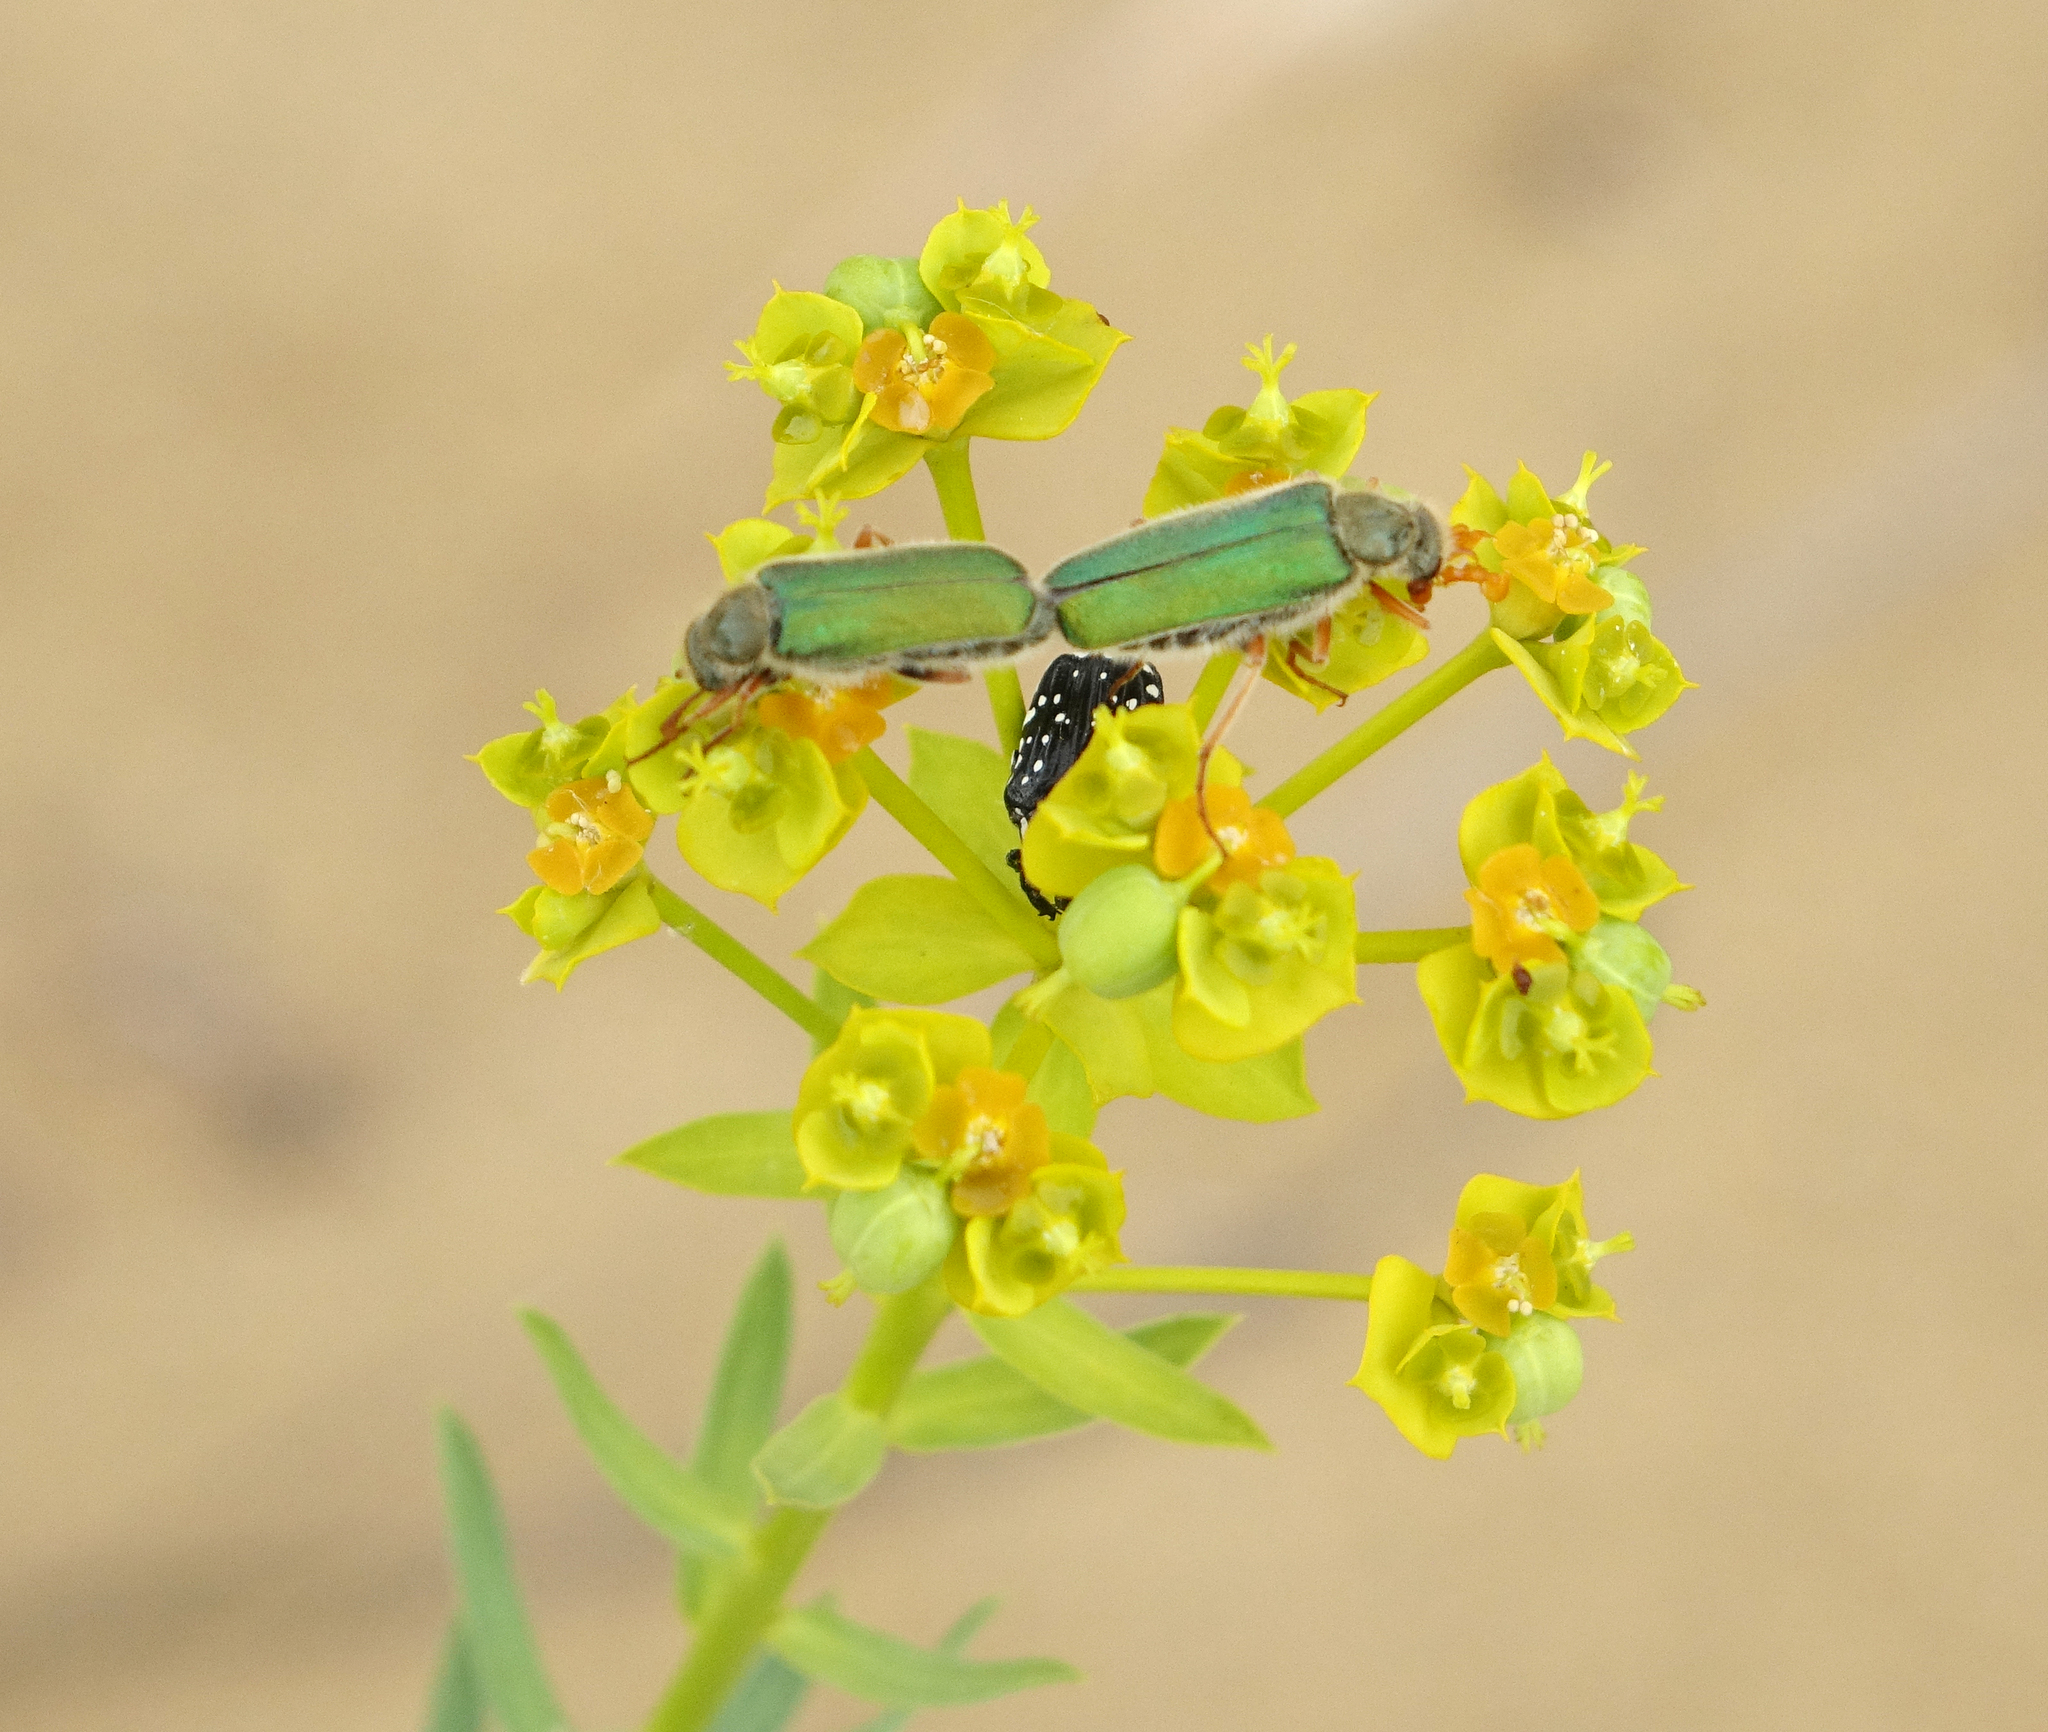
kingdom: Plantae
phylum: Tracheophyta
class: Magnoliopsida
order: Malpighiales
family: Euphorbiaceae
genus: Euphorbia
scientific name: Euphorbia seguieriana
